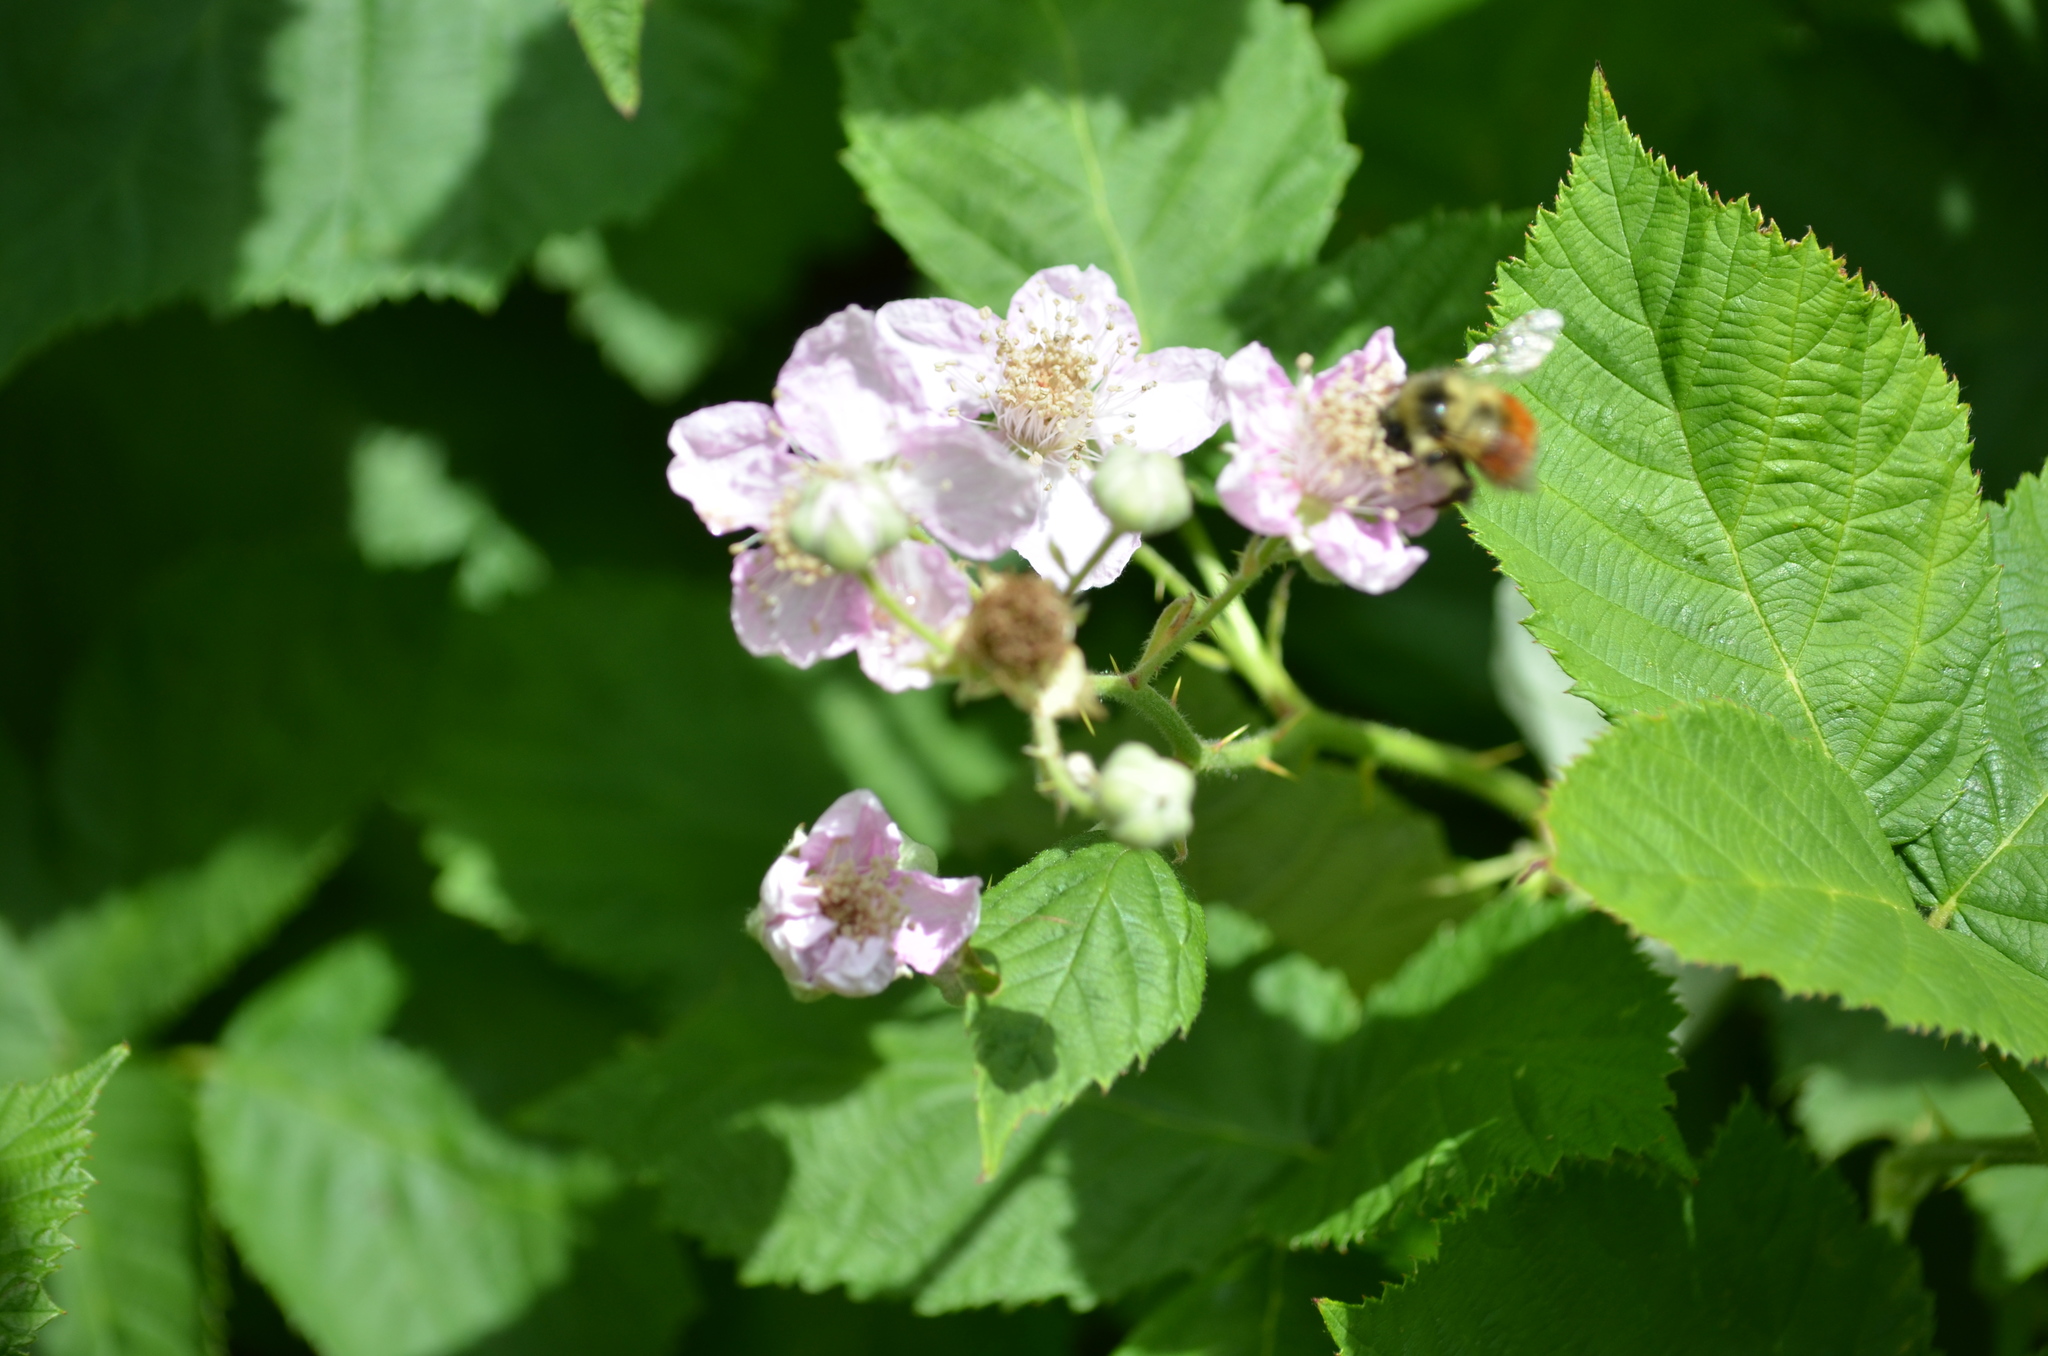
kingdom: Animalia
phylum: Arthropoda
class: Insecta
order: Hymenoptera
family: Apidae
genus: Bombus
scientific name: Bombus melanopygus
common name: Black tail bumble bee
